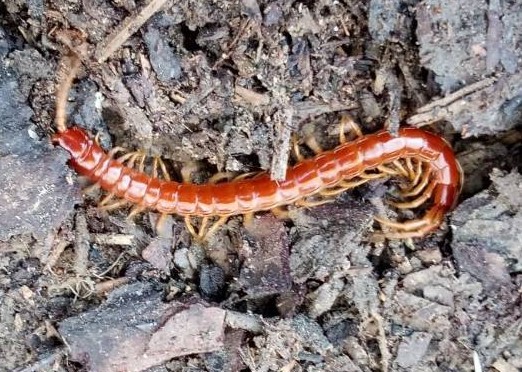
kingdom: Animalia
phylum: Arthropoda
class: Chilopoda
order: Scolopendromorpha
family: Scolopocryptopidae
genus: Scolopocryptops
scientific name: Scolopocryptops sexspinosus
